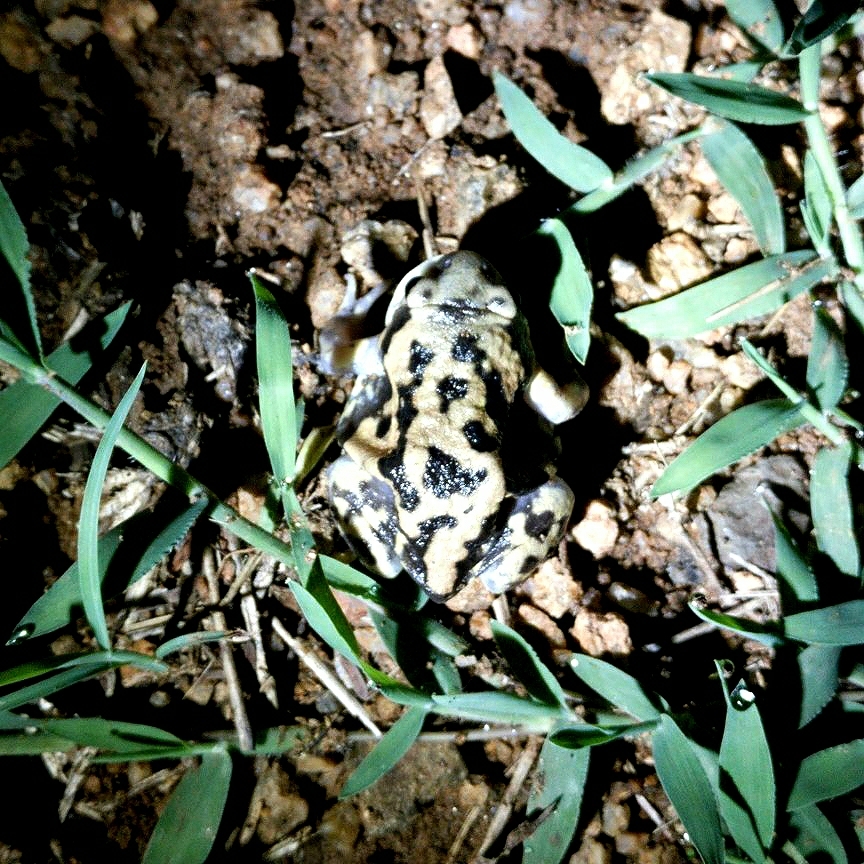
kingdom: Animalia
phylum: Chordata
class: Amphibia
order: Anura
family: Microhylidae
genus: Uperodon
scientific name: Uperodon systoma
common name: Balloon frog
